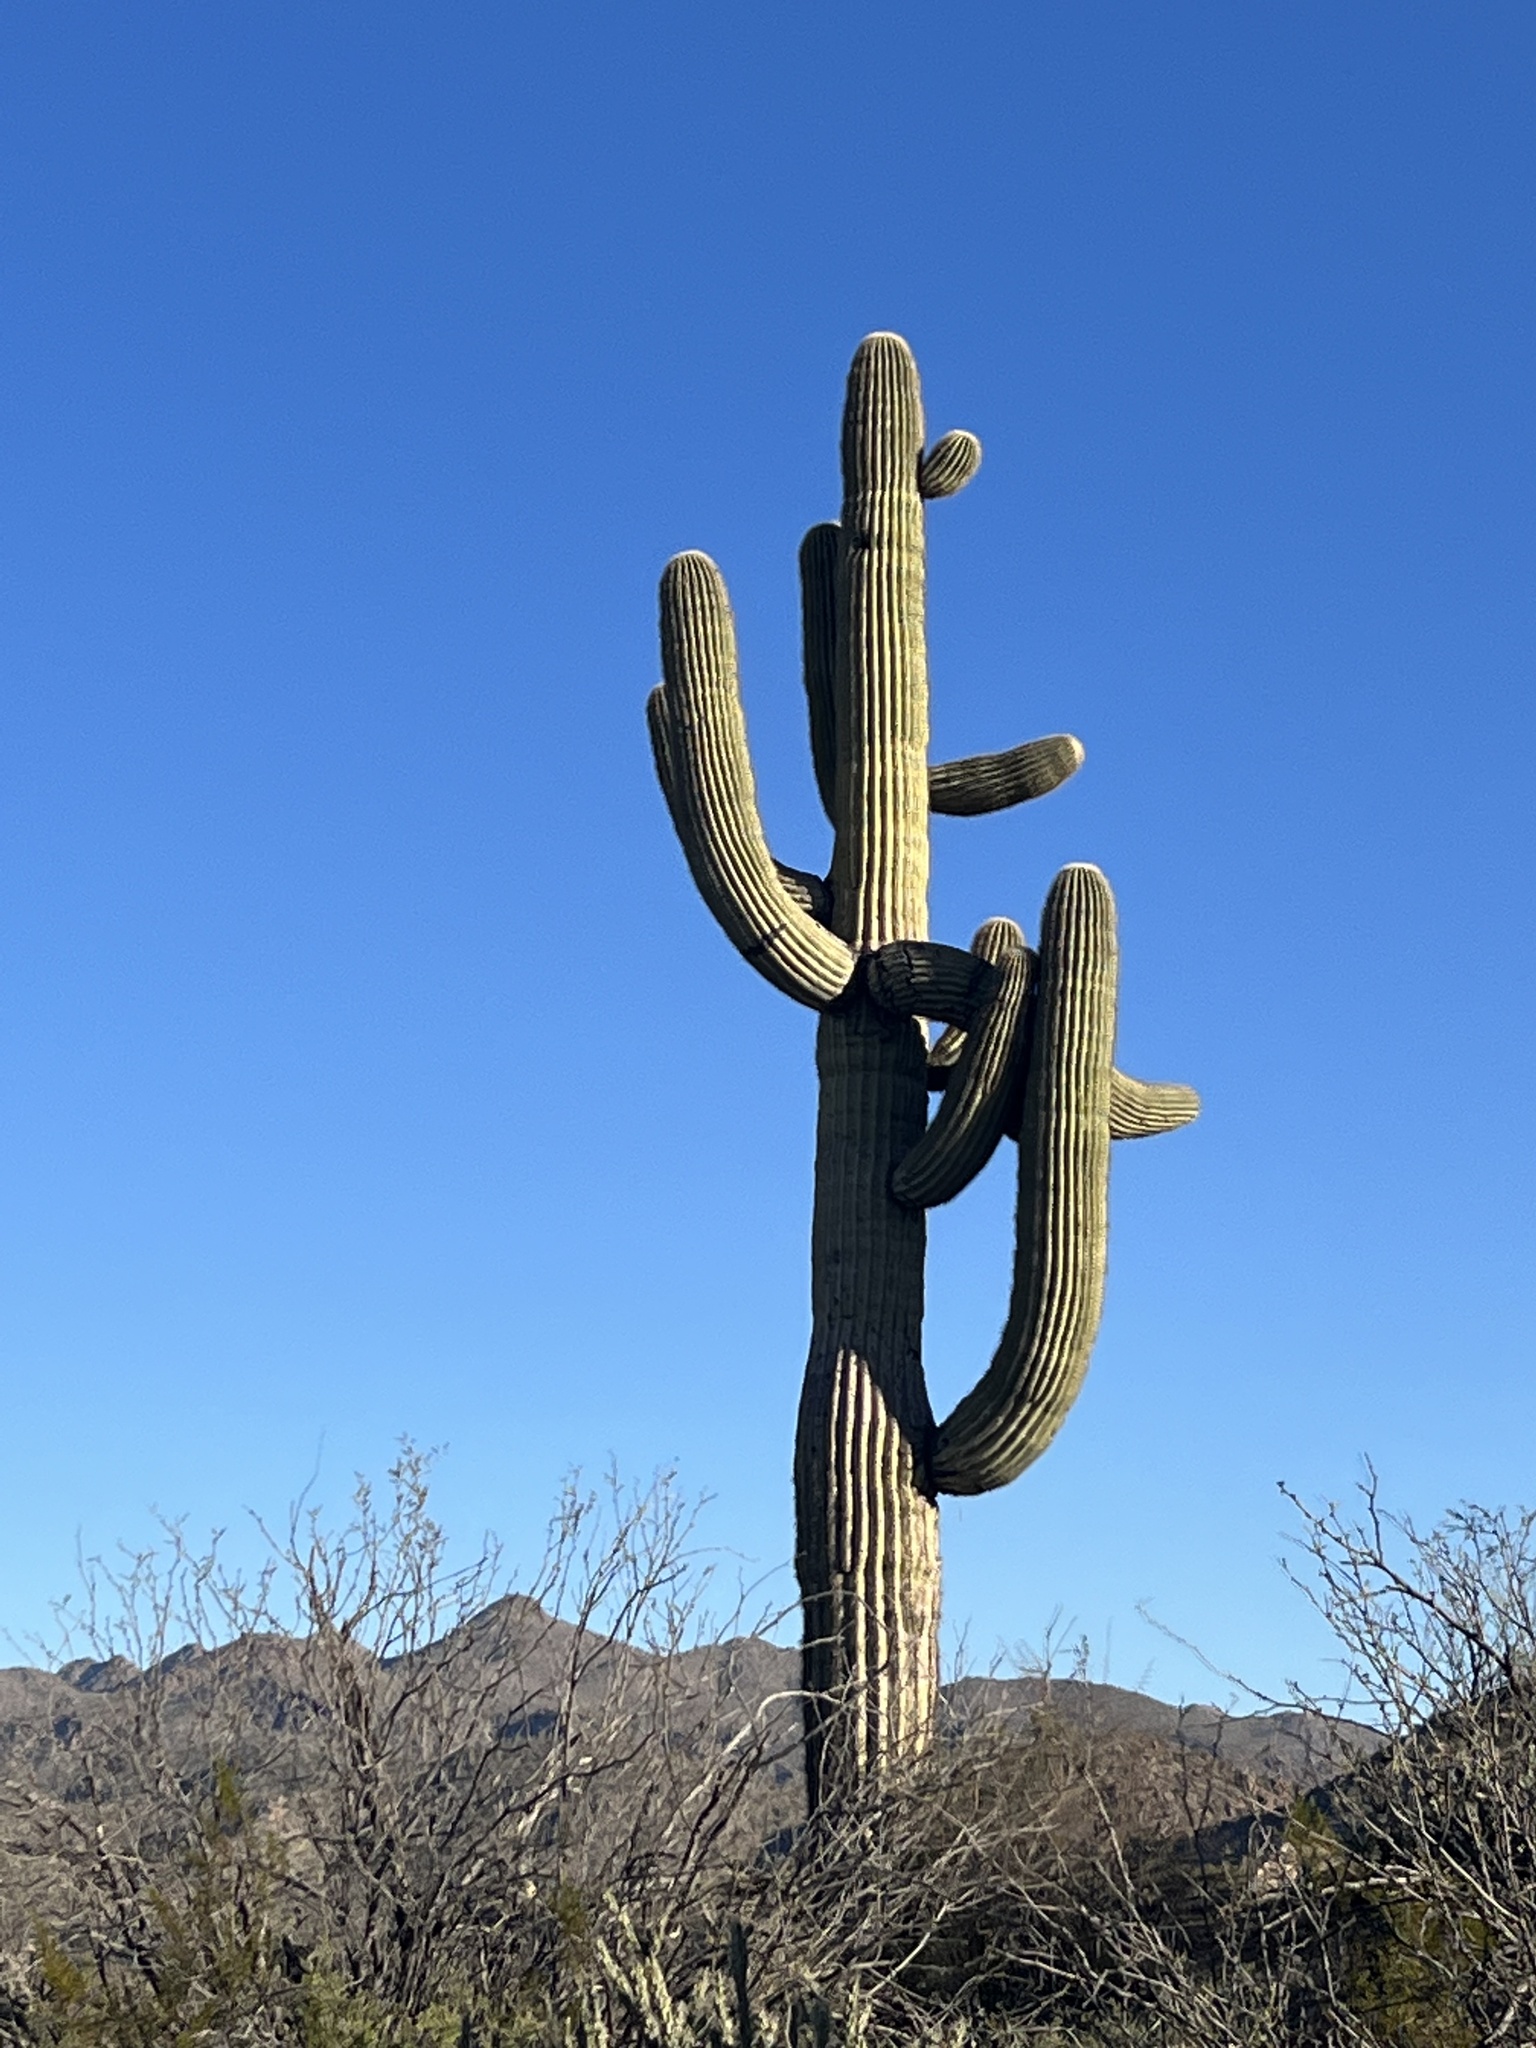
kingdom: Plantae
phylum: Tracheophyta
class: Magnoliopsida
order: Caryophyllales
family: Cactaceae
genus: Carnegiea
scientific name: Carnegiea gigantea
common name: Saguaro
